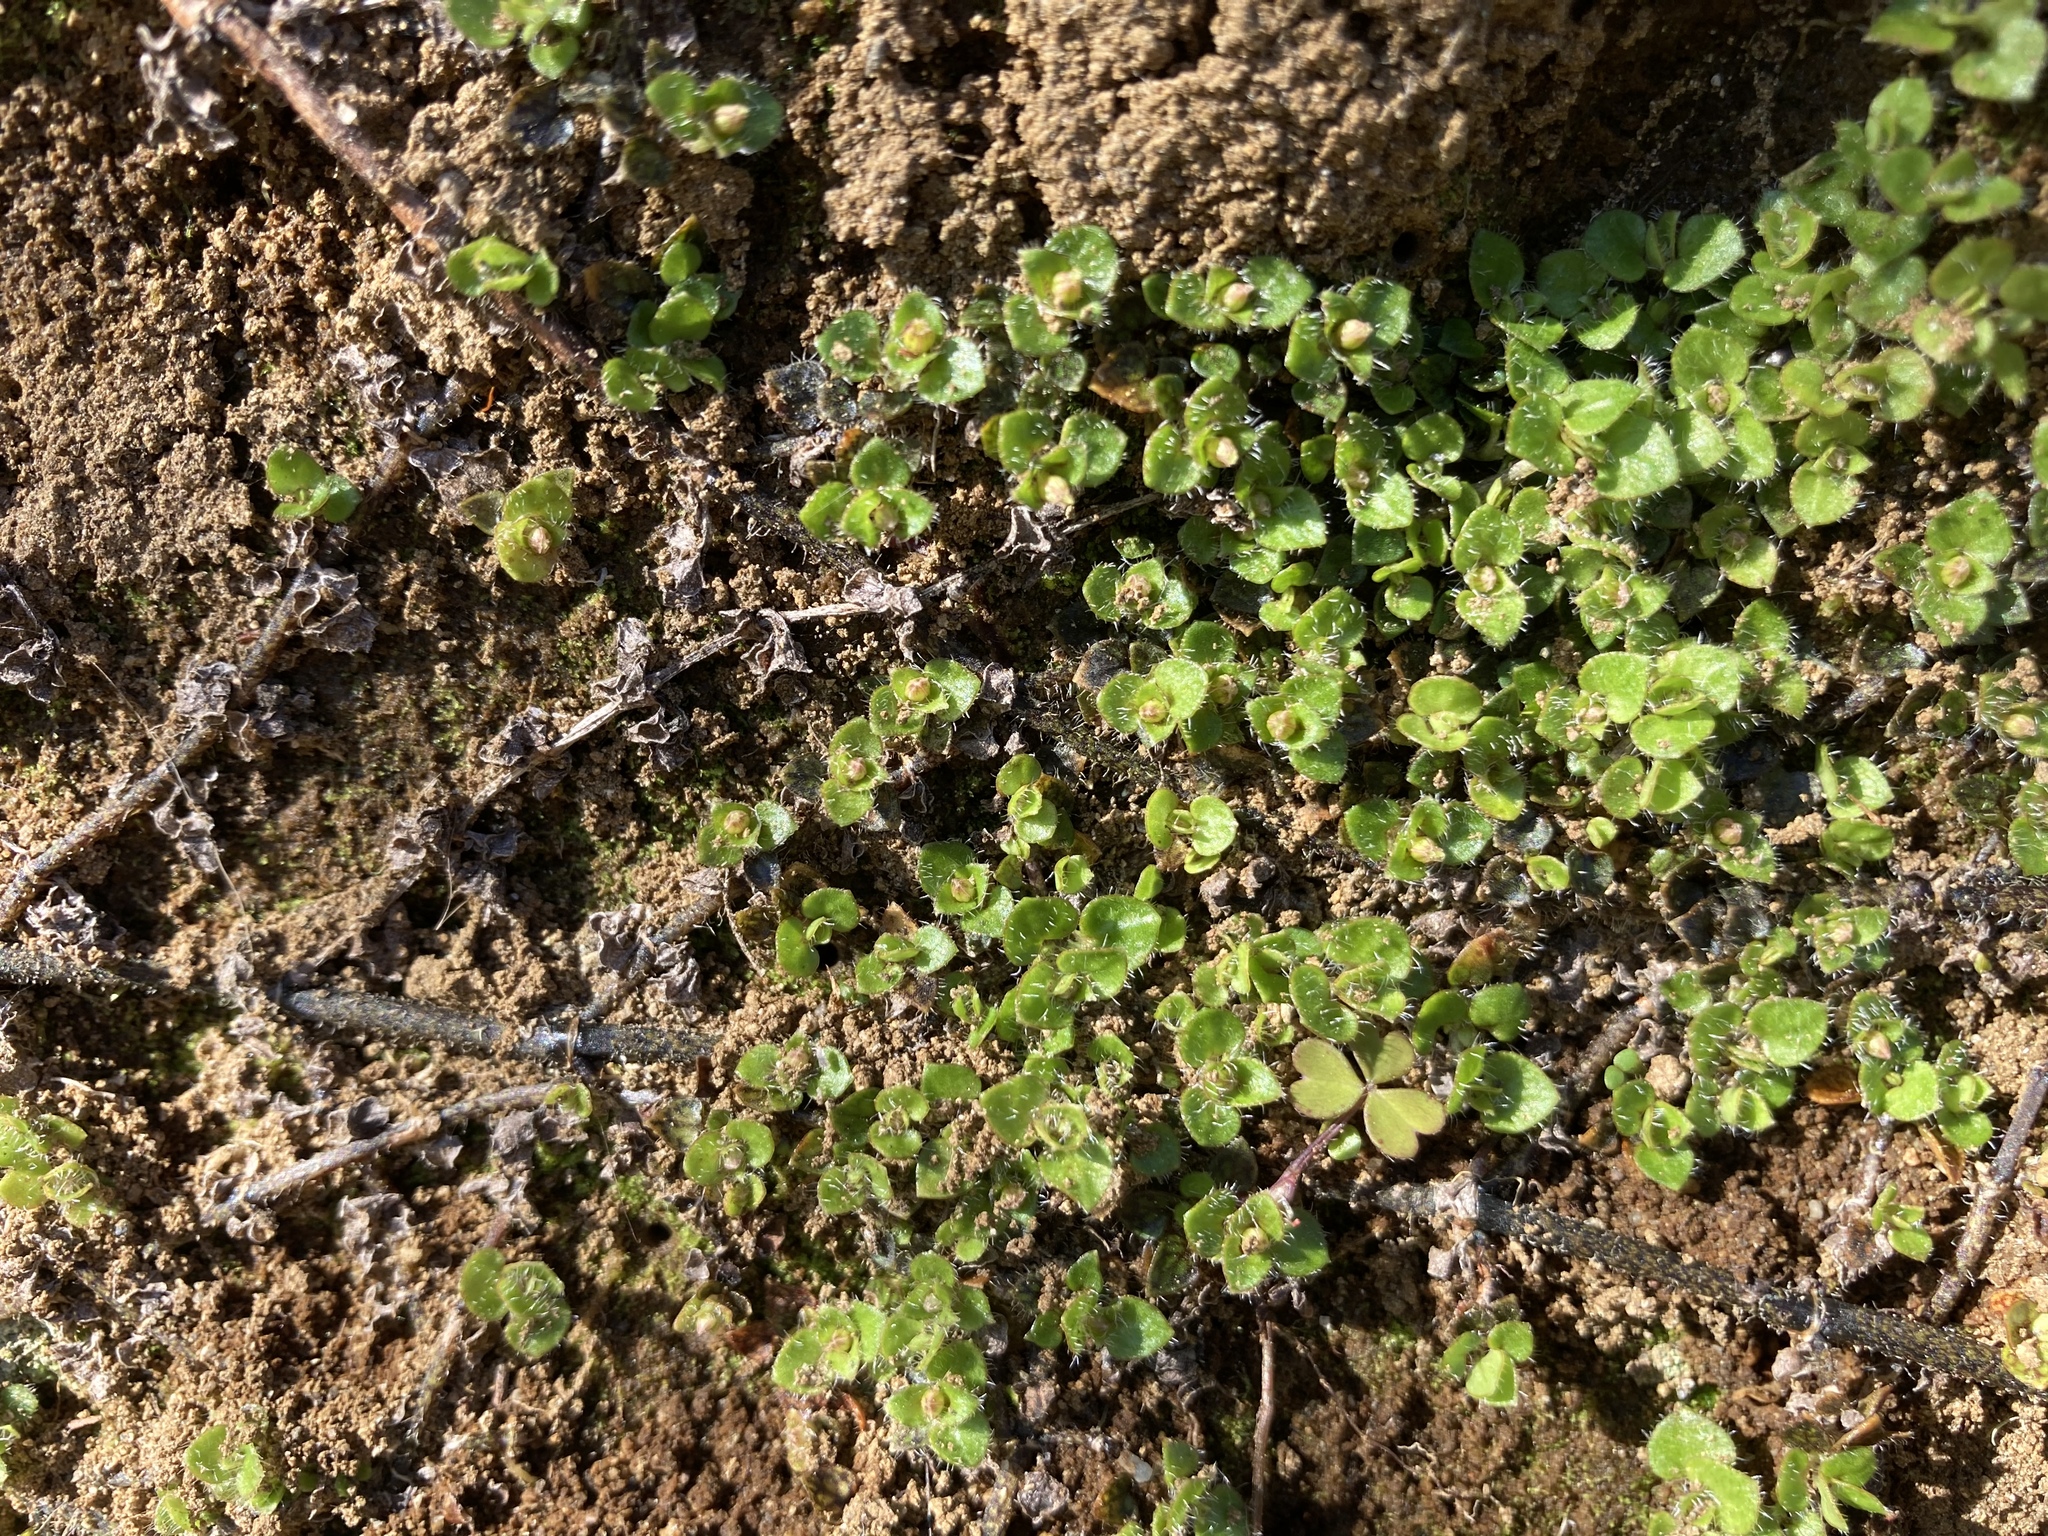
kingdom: Plantae
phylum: Tracheophyta
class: Magnoliopsida
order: Gentianales
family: Rubiaceae
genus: Nertera
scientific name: Nertera ciliata
